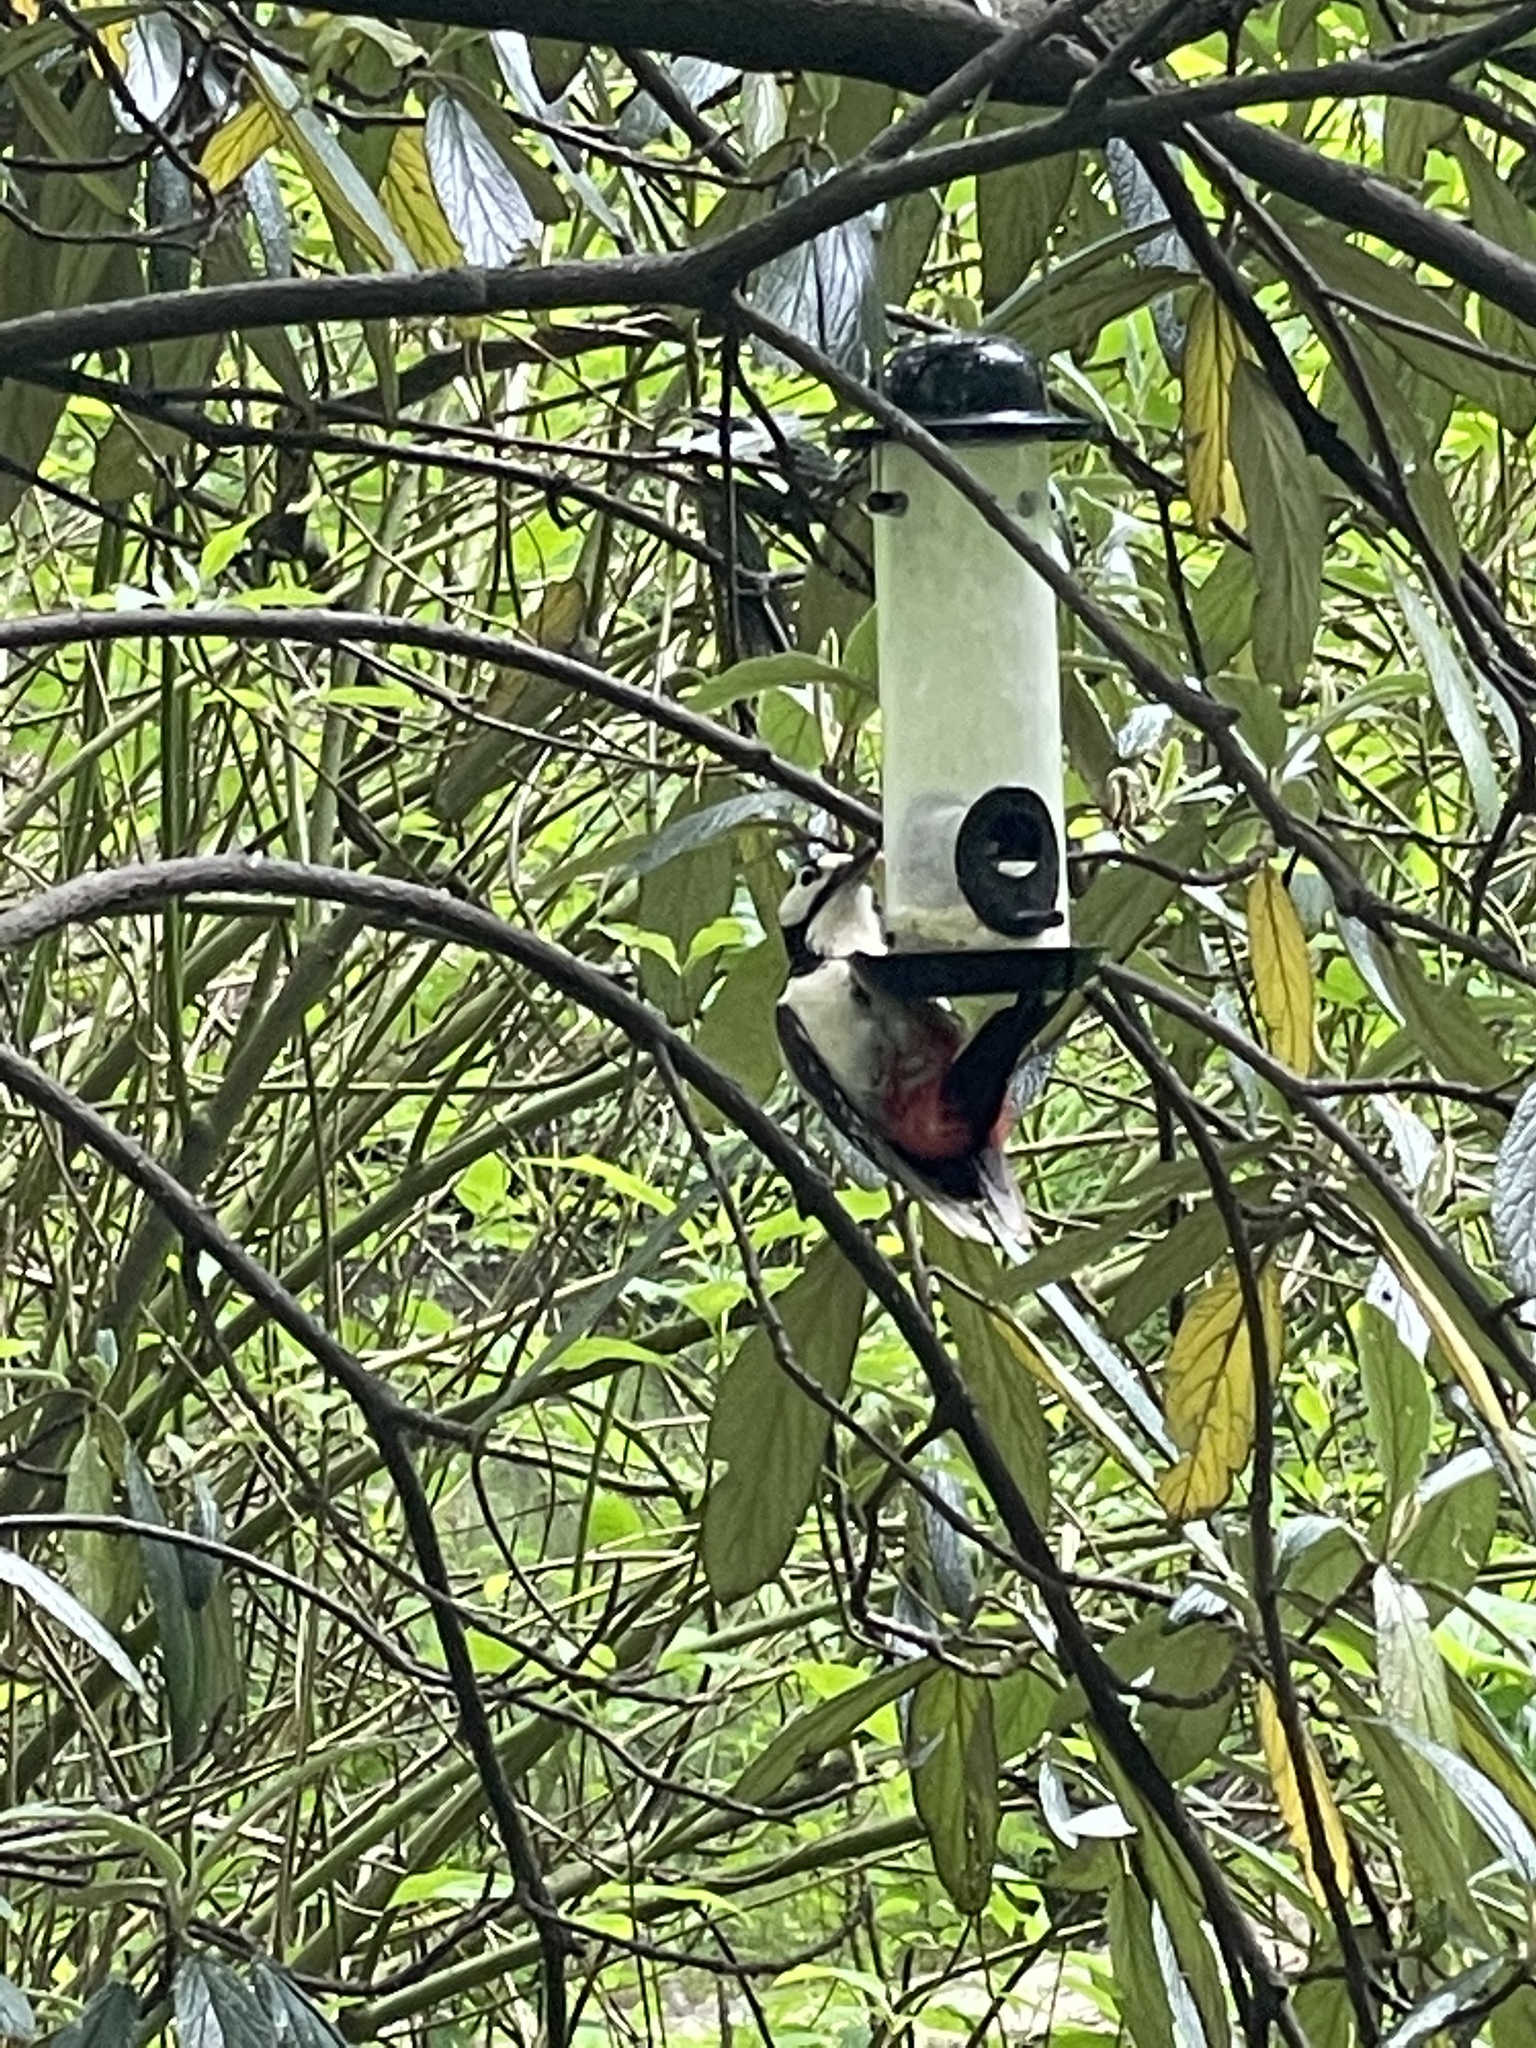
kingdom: Animalia
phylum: Chordata
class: Aves
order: Piciformes
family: Picidae
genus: Dendrocopos
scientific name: Dendrocopos major
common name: Great spotted woodpecker
